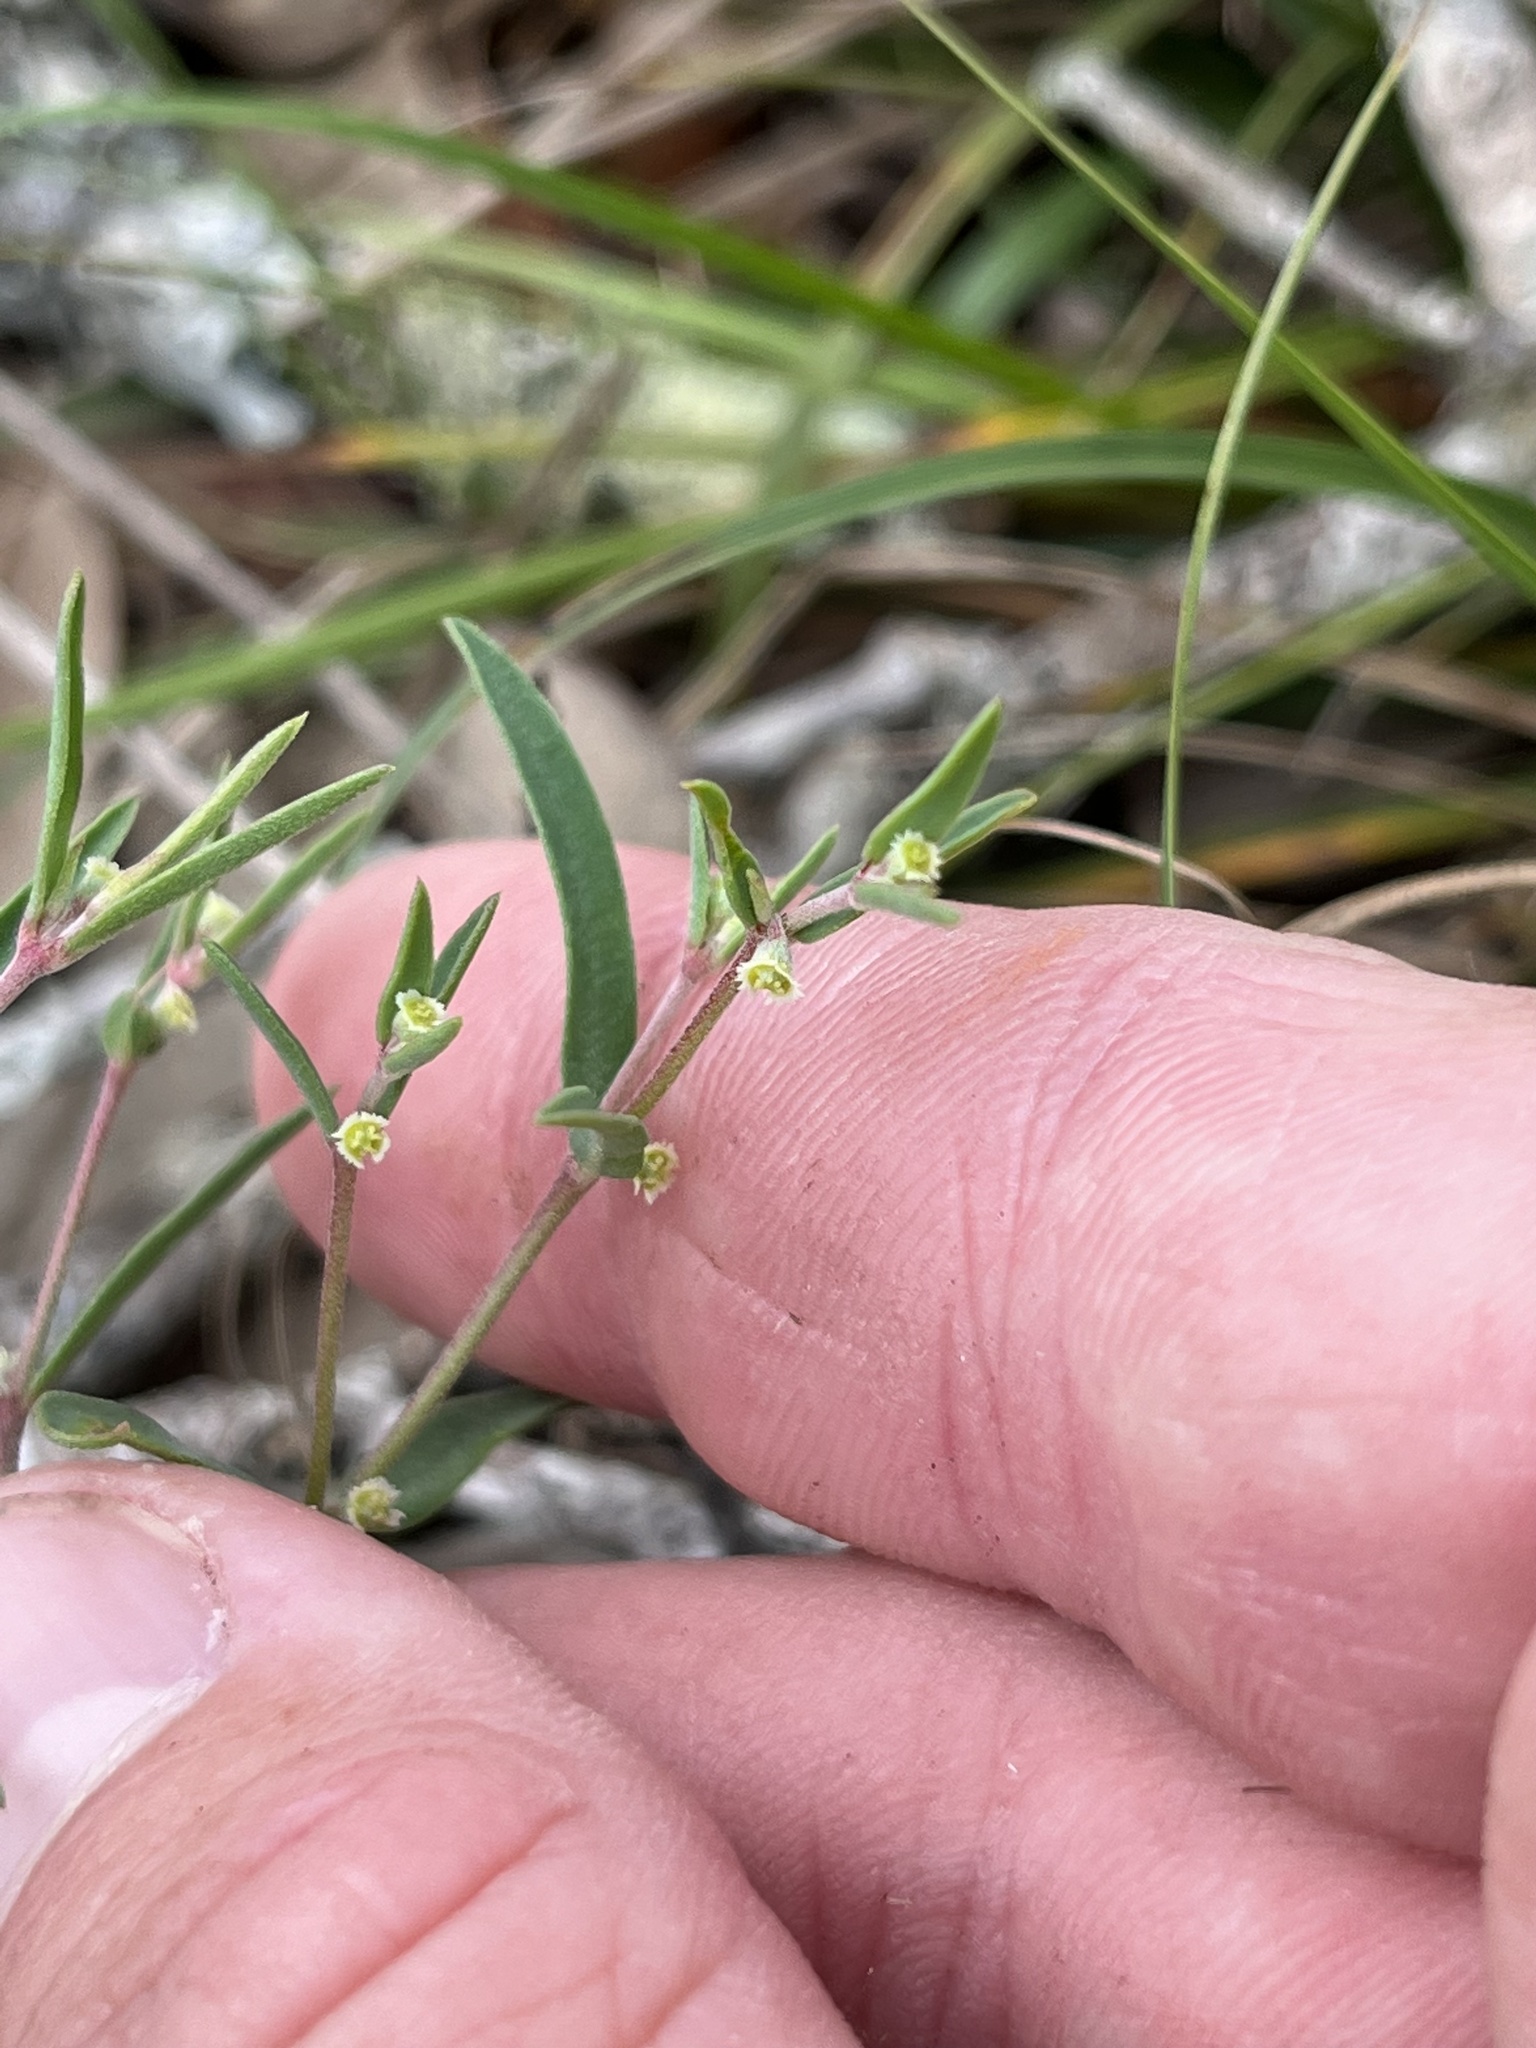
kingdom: Plantae
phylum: Tracheophyta
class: Magnoliopsida
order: Malpighiales
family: Euphorbiaceae
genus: Euphorbia
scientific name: Euphorbia angusta
